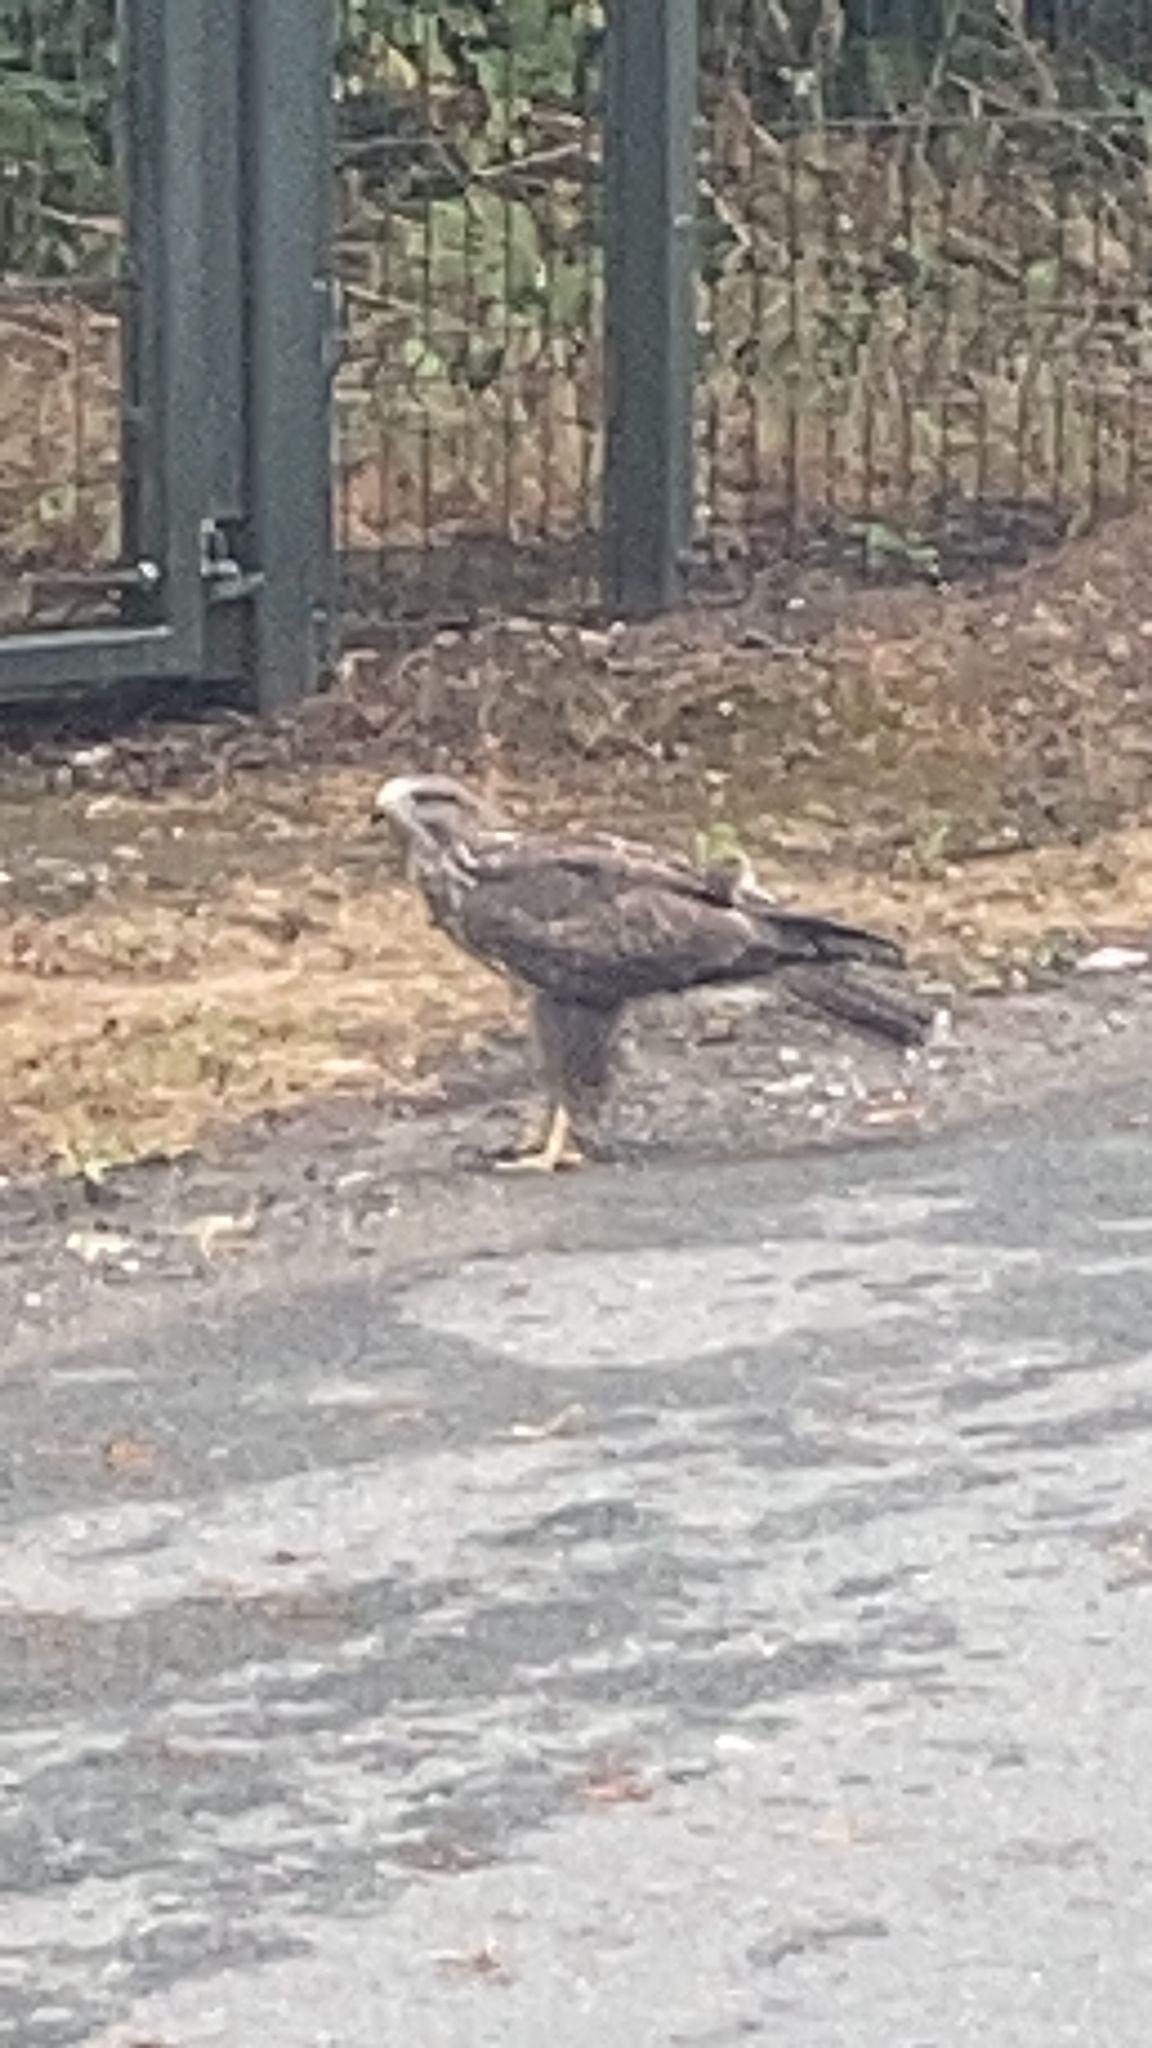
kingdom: Animalia
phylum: Chordata
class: Aves
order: Accipitriformes
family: Accipitridae
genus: Buteo
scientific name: Buteo buteo
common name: Common buzzard
